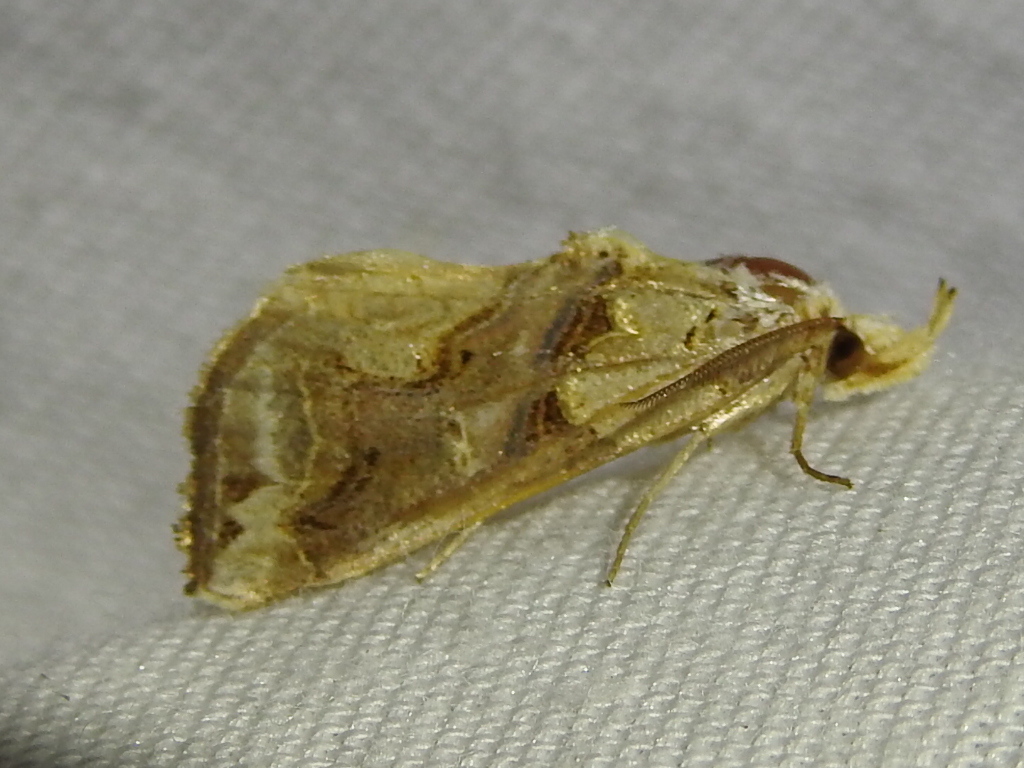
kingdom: Animalia
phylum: Arthropoda
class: Insecta
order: Lepidoptera
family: Erebidae
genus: Plusiodonta
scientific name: Plusiodonta compressipalpis
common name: Moonseed moth
